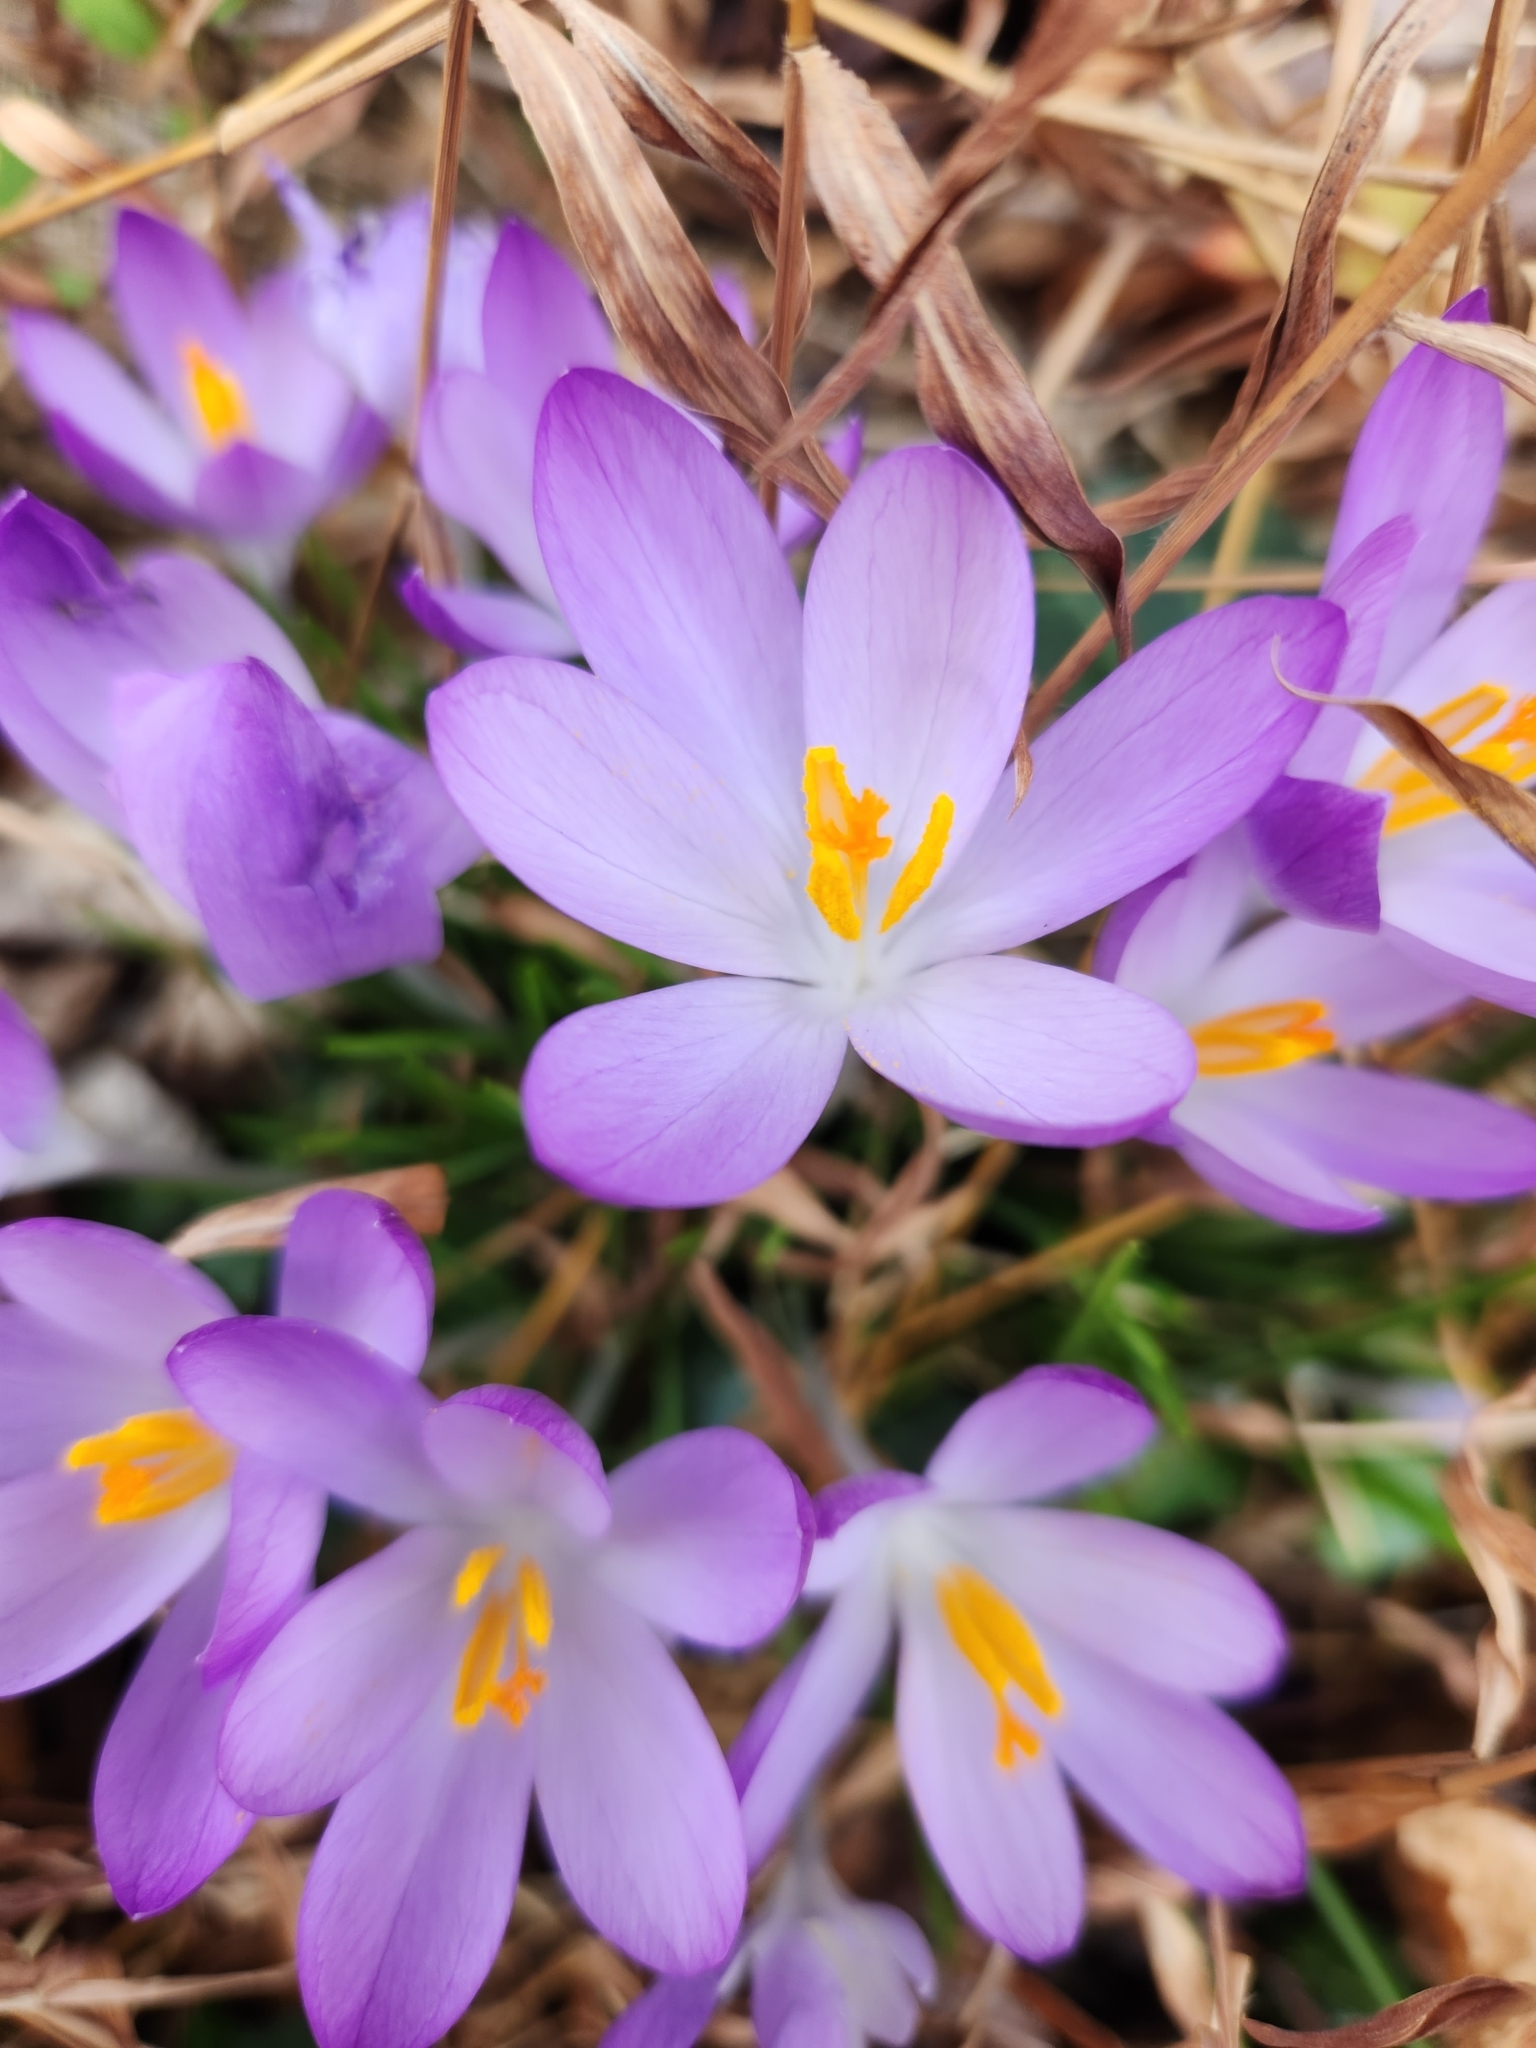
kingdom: Plantae
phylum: Tracheophyta
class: Liliopsida
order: Asparagales
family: Iridaceae
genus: Crocus
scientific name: Crocus tommasinianus
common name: Early crocus
